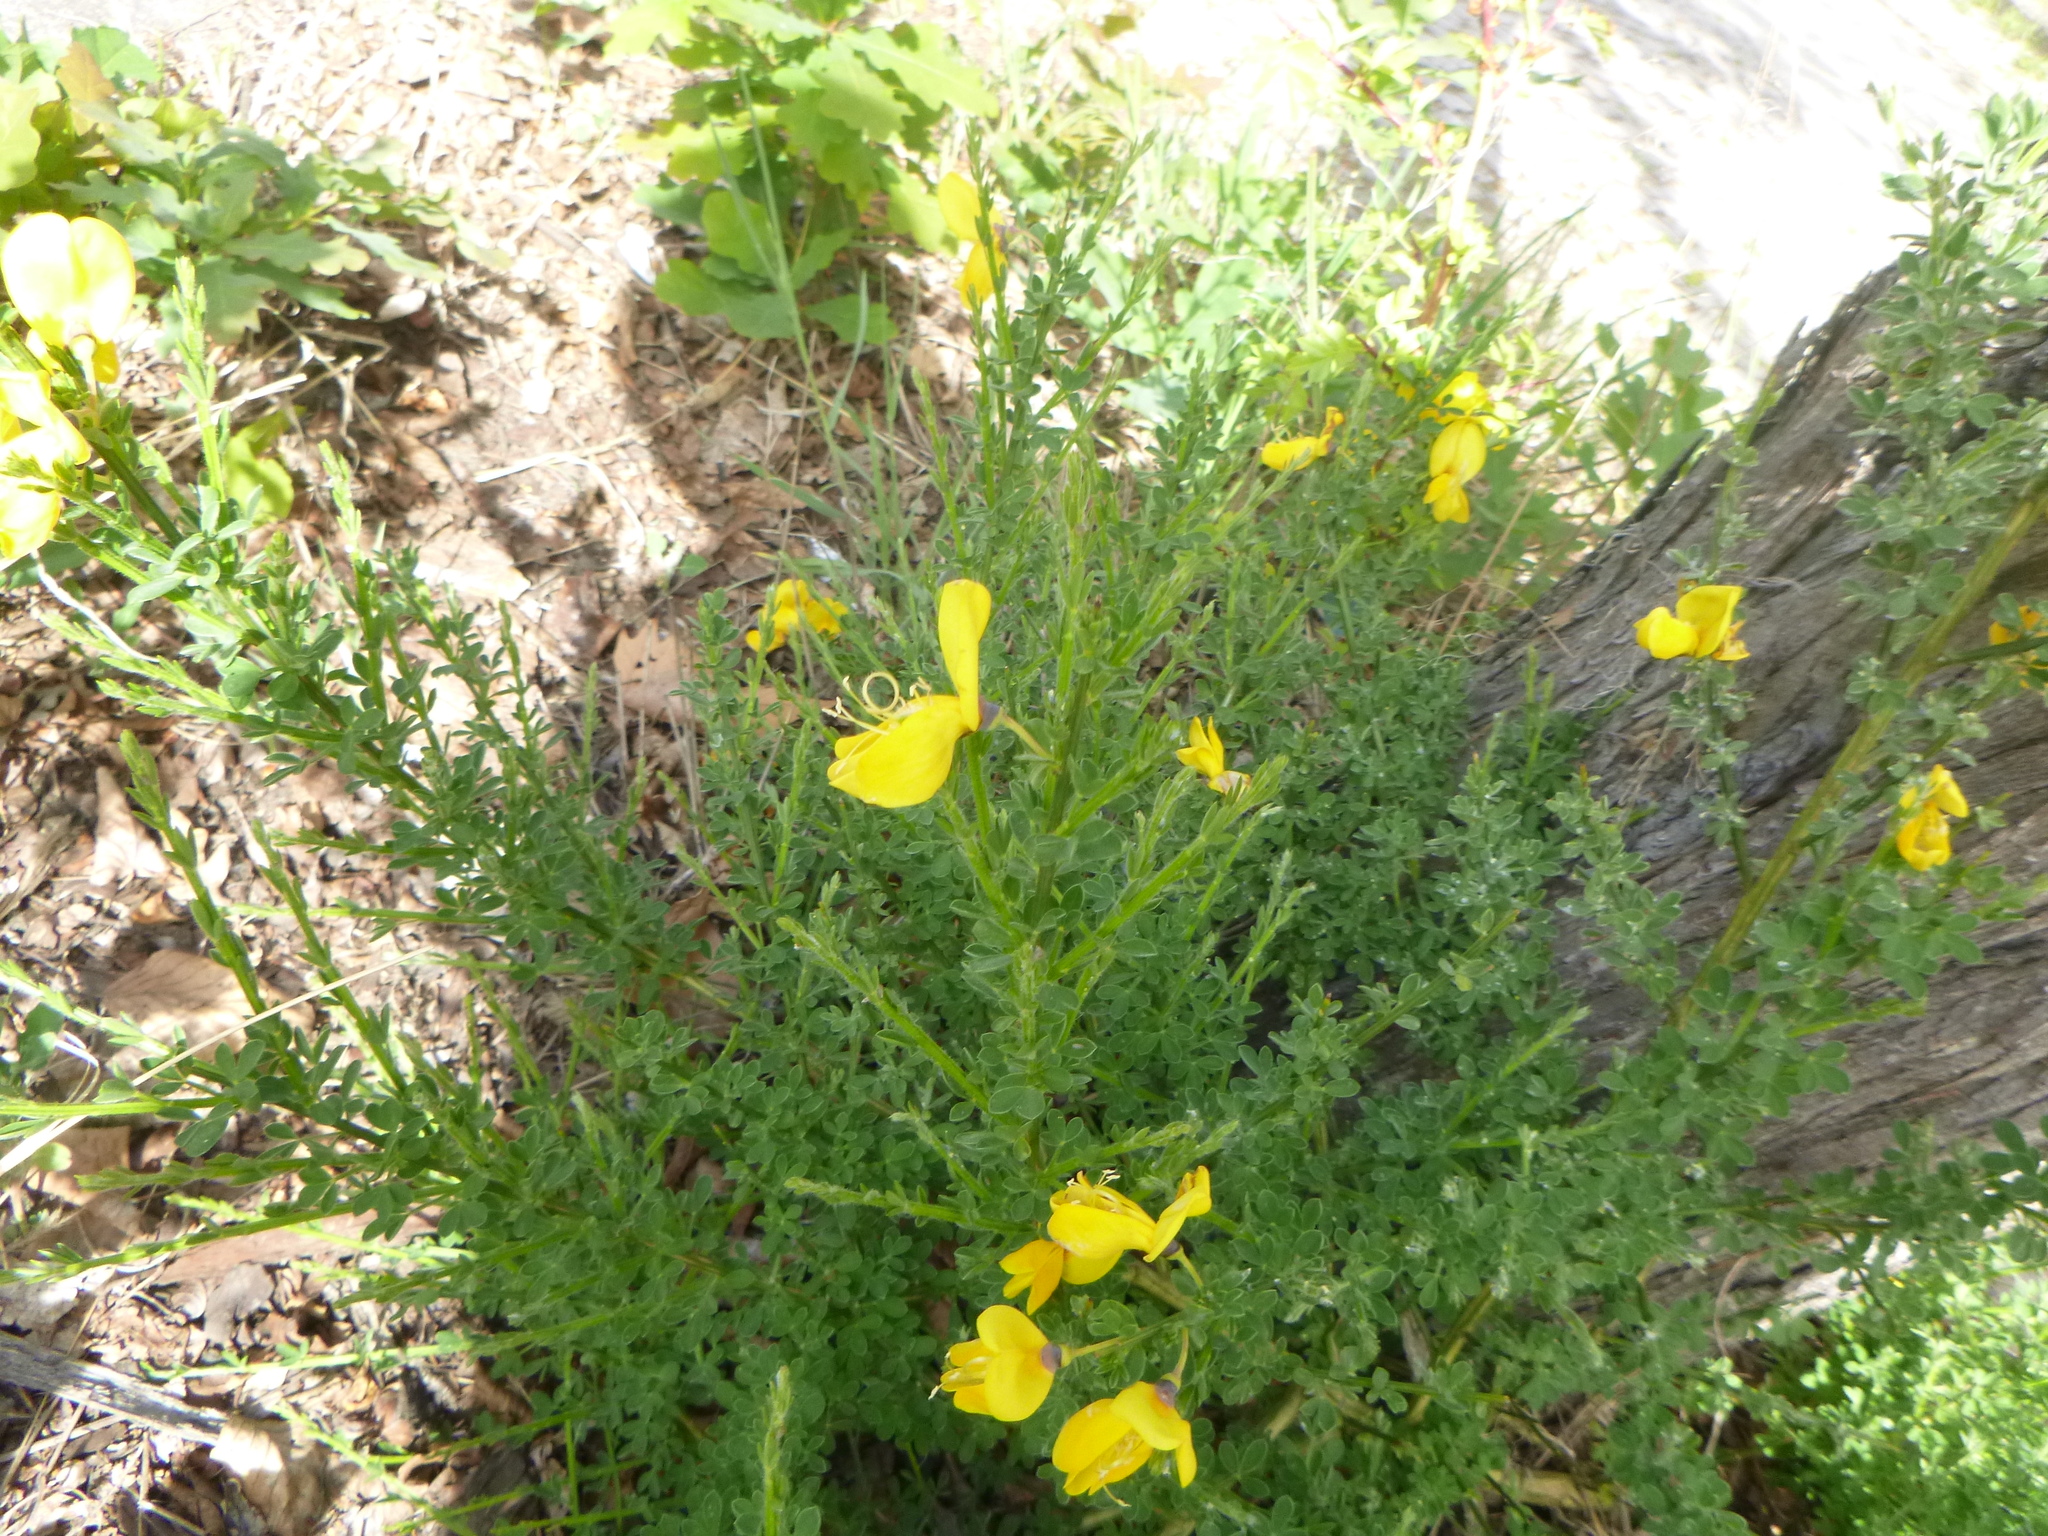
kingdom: Plantae
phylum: Tracheophyta
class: Magnoliopsida
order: Fabales
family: Fabaceae
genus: Cytisus
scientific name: Cytisus scoparius
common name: Scotch broom
